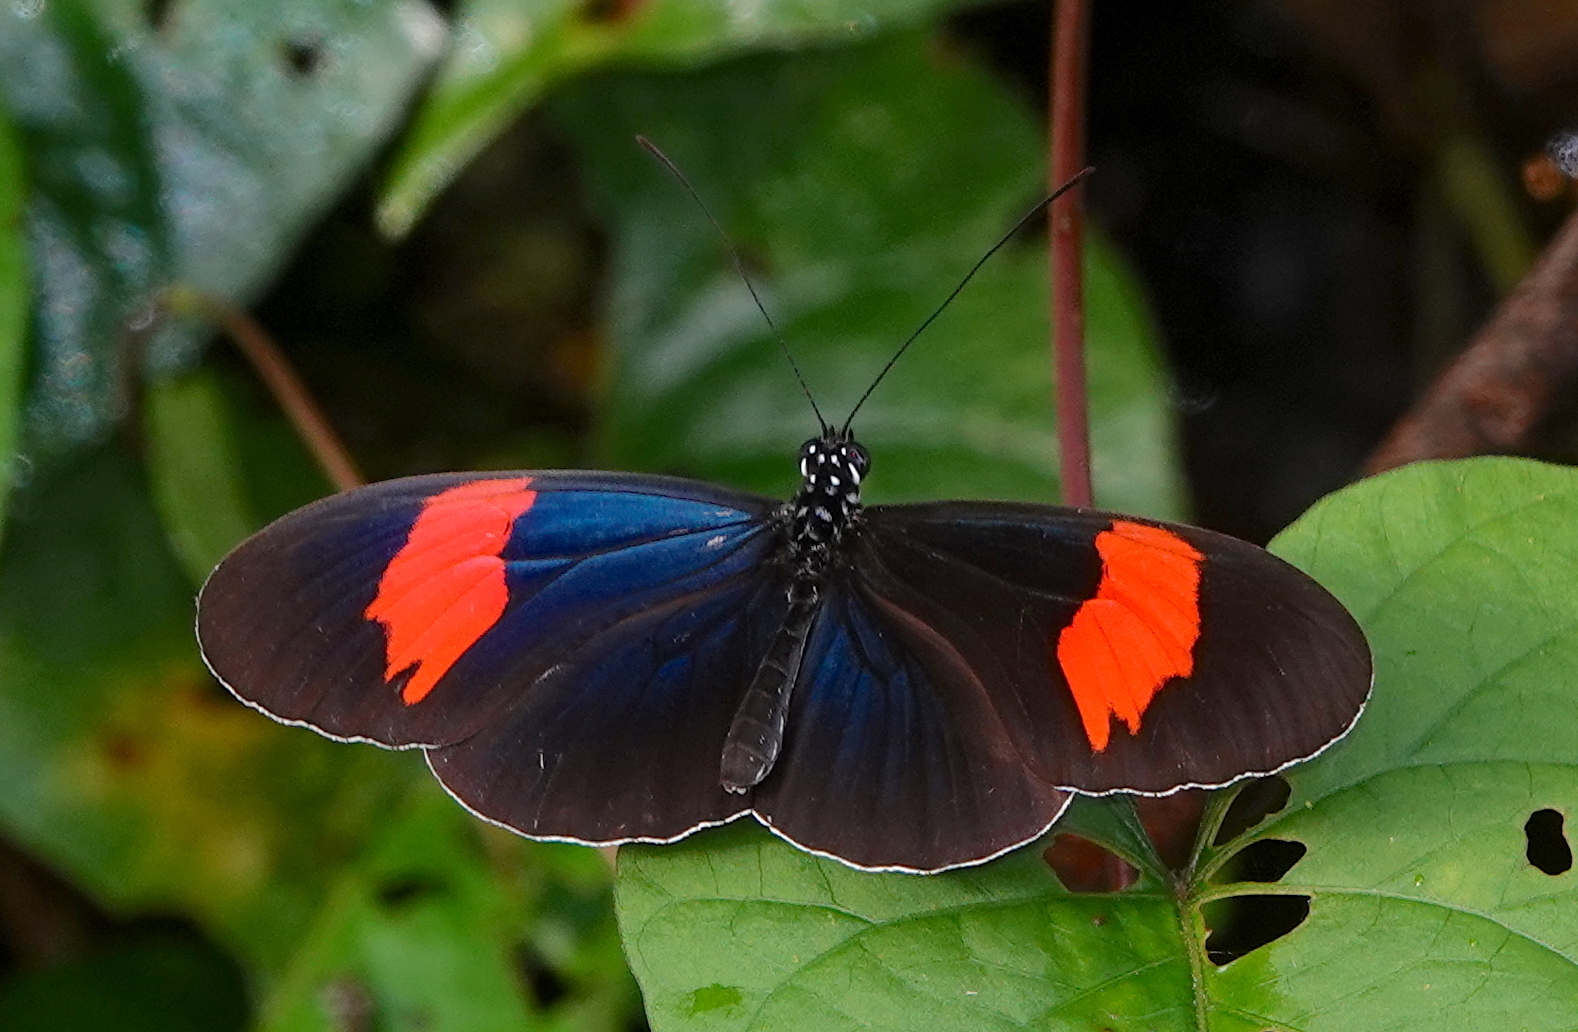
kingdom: Animalia
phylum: Arthropoda
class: Insecta
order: Lepidoptera
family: Nymphalidae
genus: Heliconius
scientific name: Heliconius erato
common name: Common patch longwing
